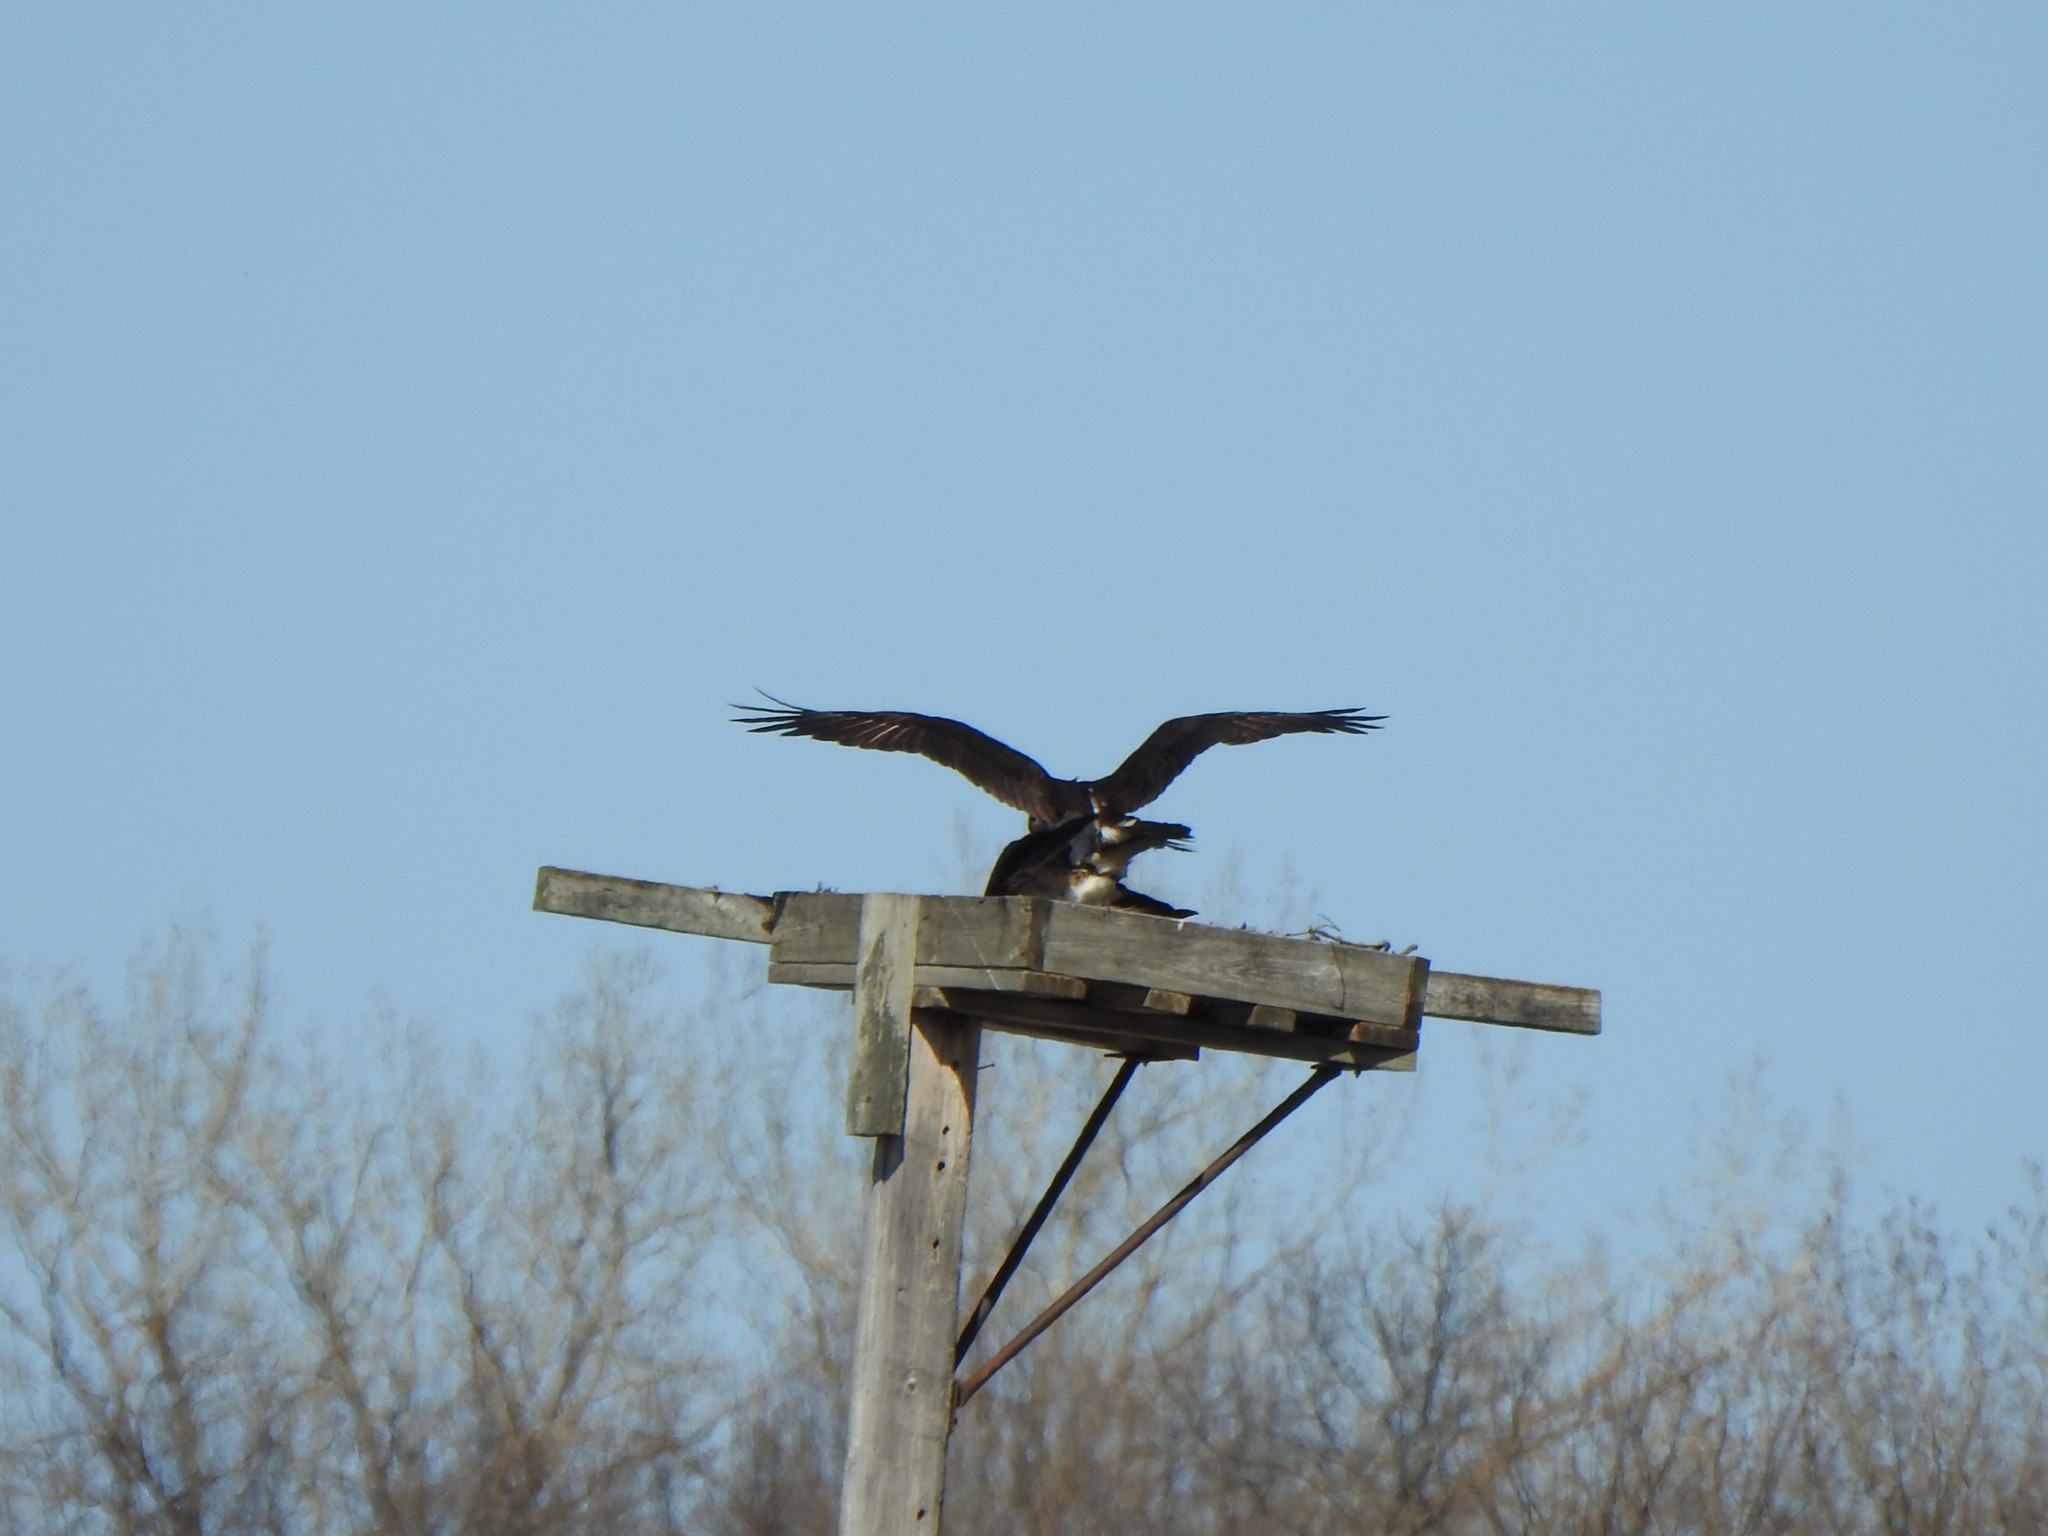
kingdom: Animalia
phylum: Chordata
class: Aves
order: Accipitriformes
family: Pandionidae
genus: Pandion
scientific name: Pandion haliaetus
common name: Osprey
